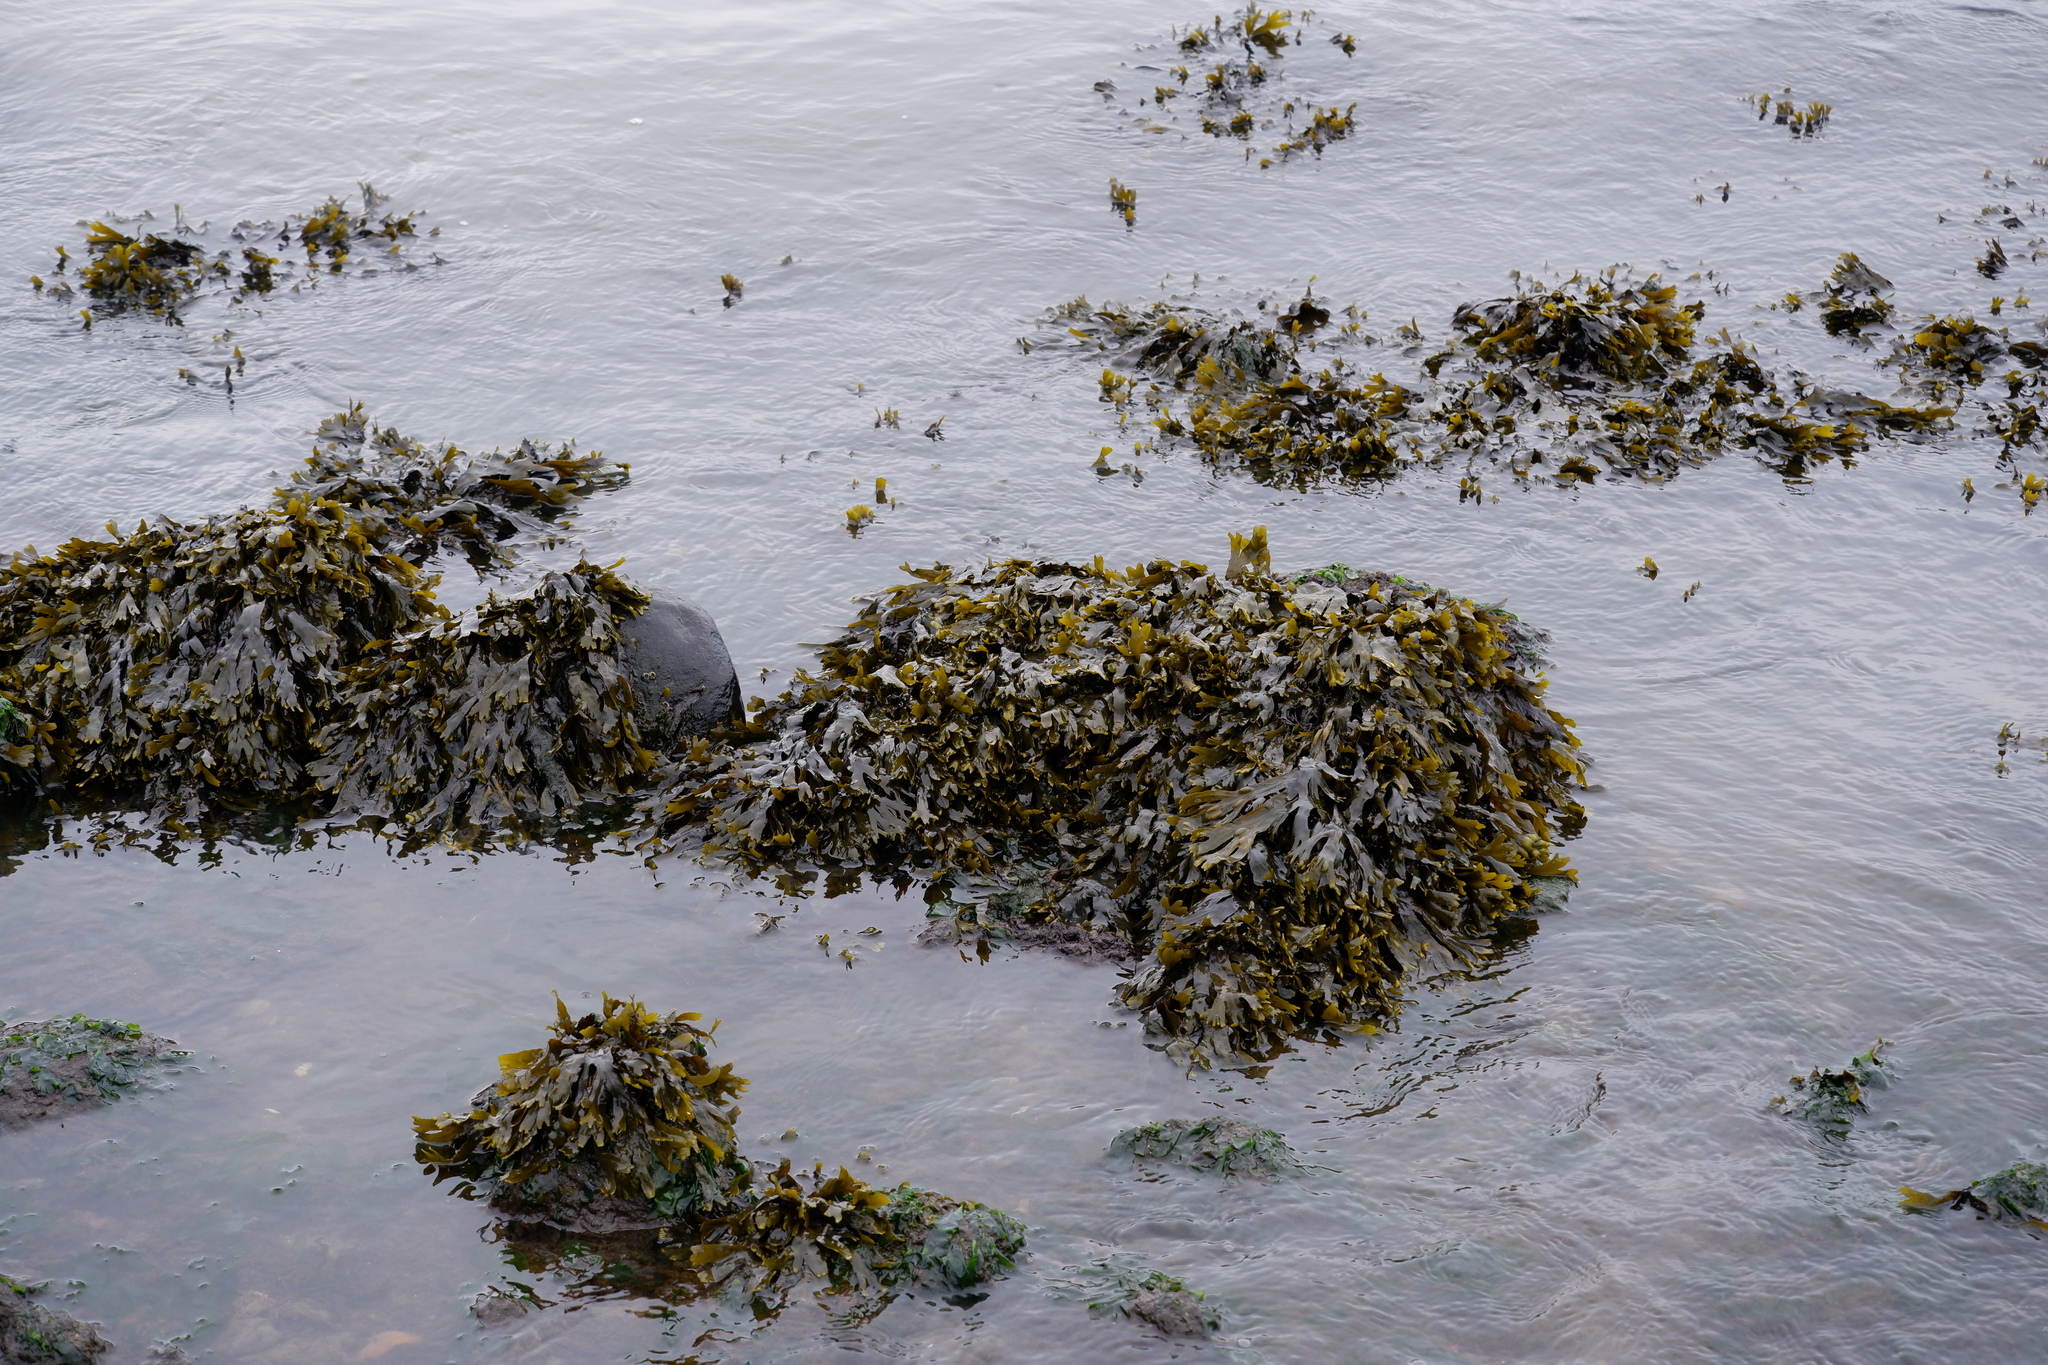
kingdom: Chromista
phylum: Ochrophyta
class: Phaeophyceae
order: Fucales
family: Fucaceae
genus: Fucus
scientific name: Fucus distichus
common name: Rockweed
